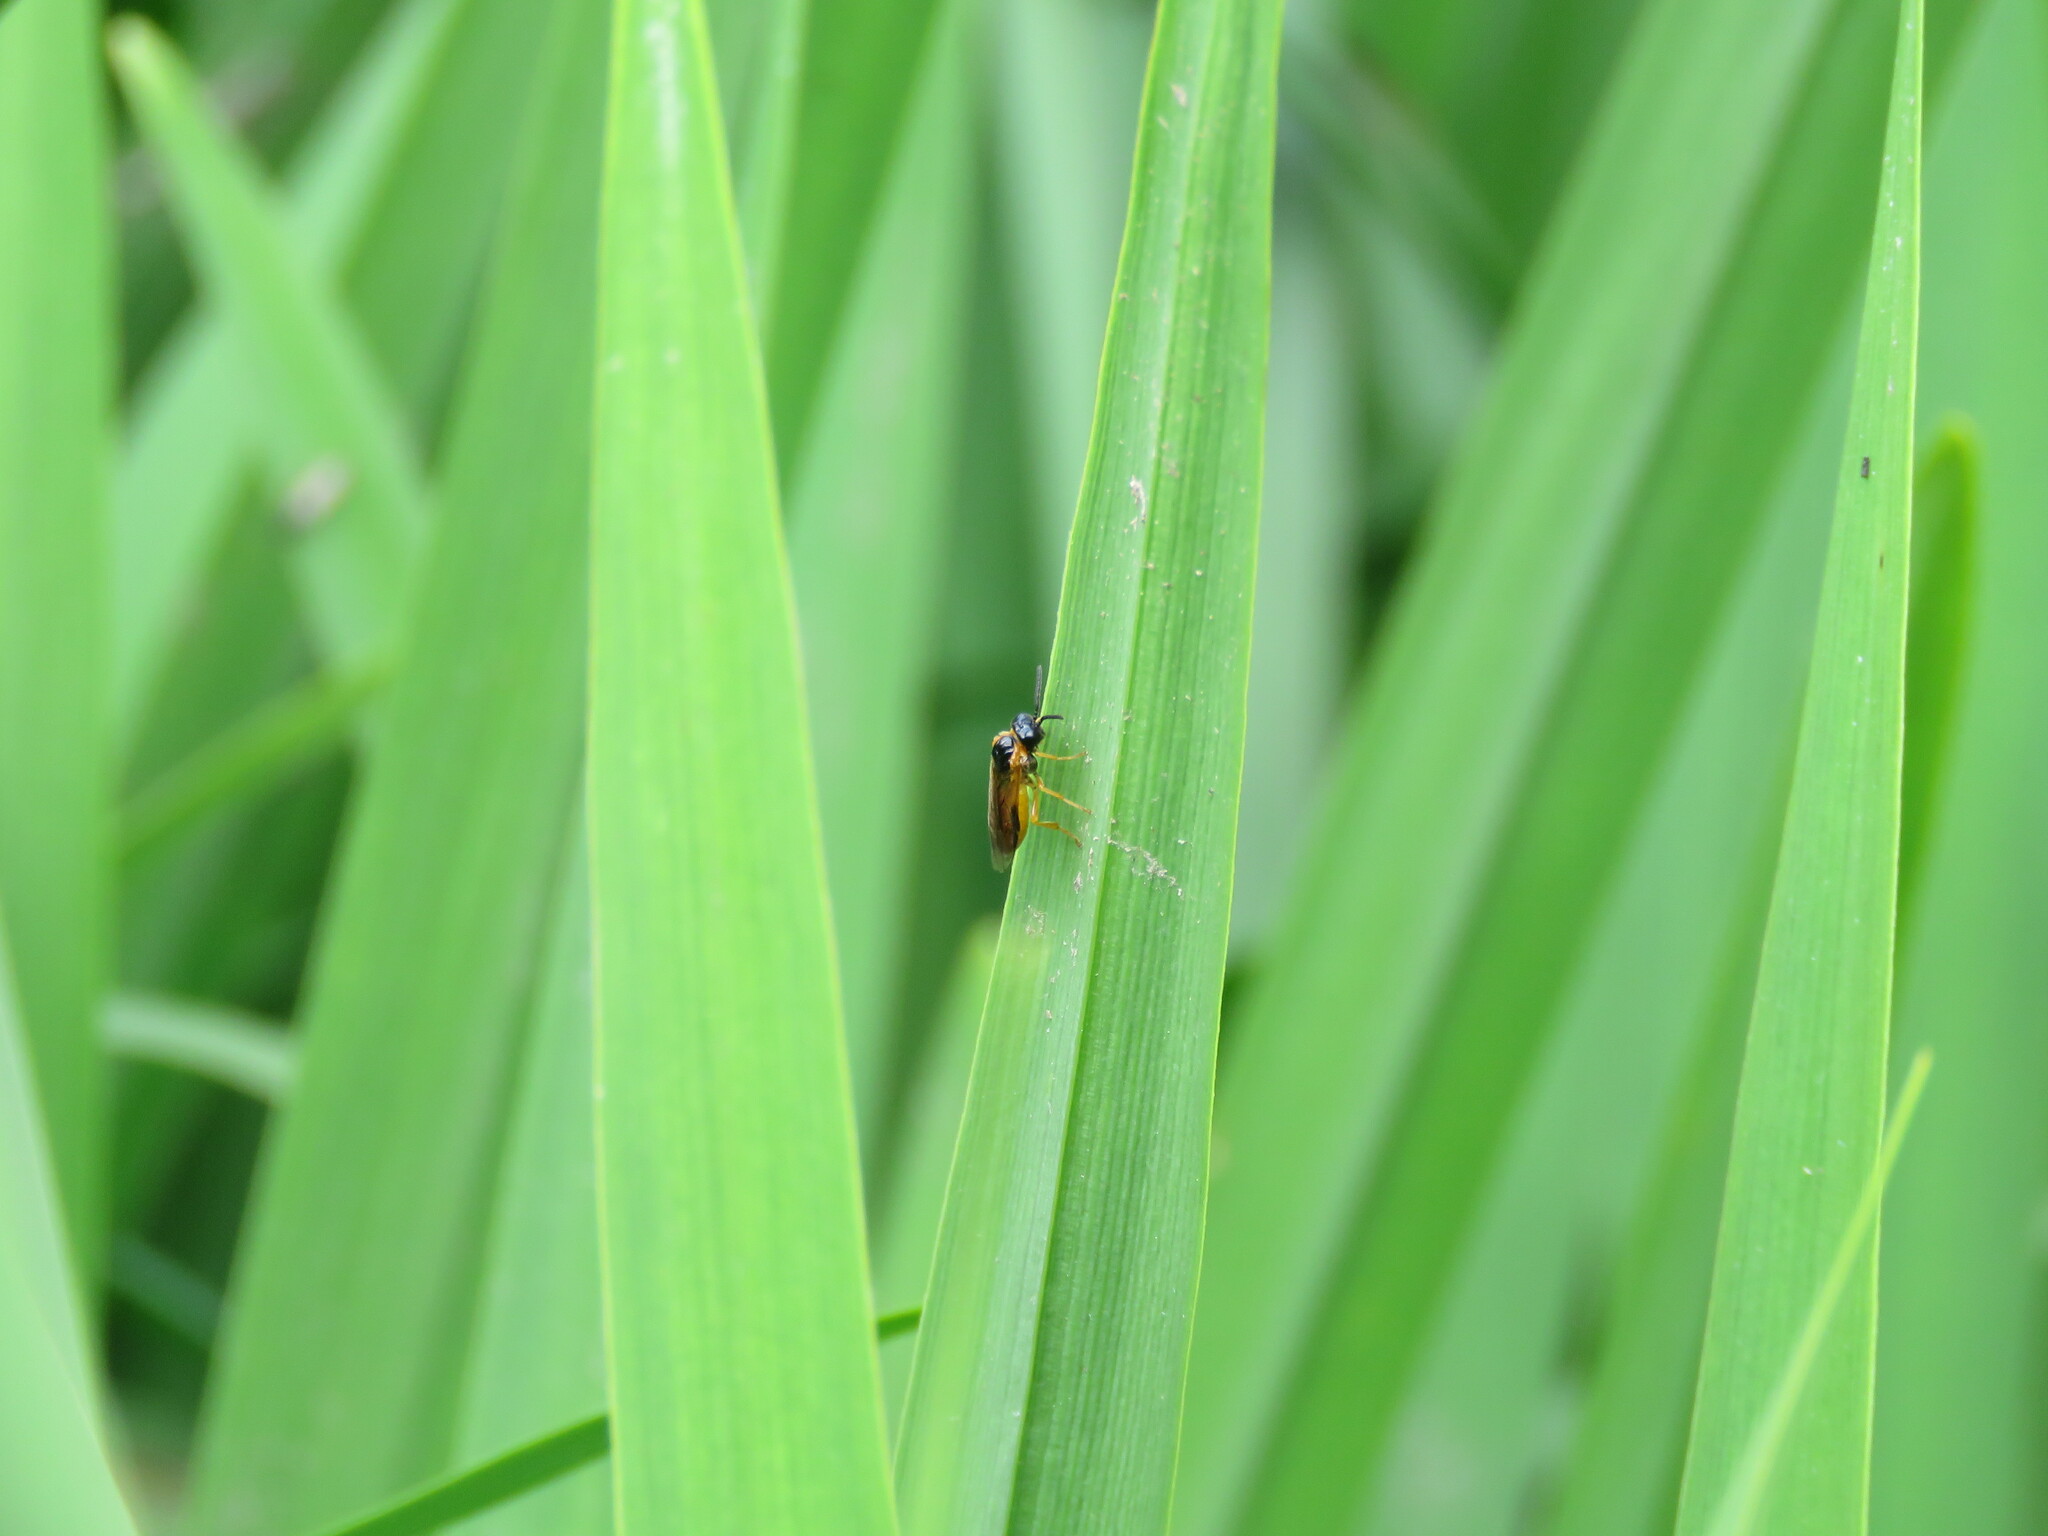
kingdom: Animalia
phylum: Arthropoda
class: Insecta
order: Hymenoptera
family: Tenthredinidae
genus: Selandria
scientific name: Selandria serva
